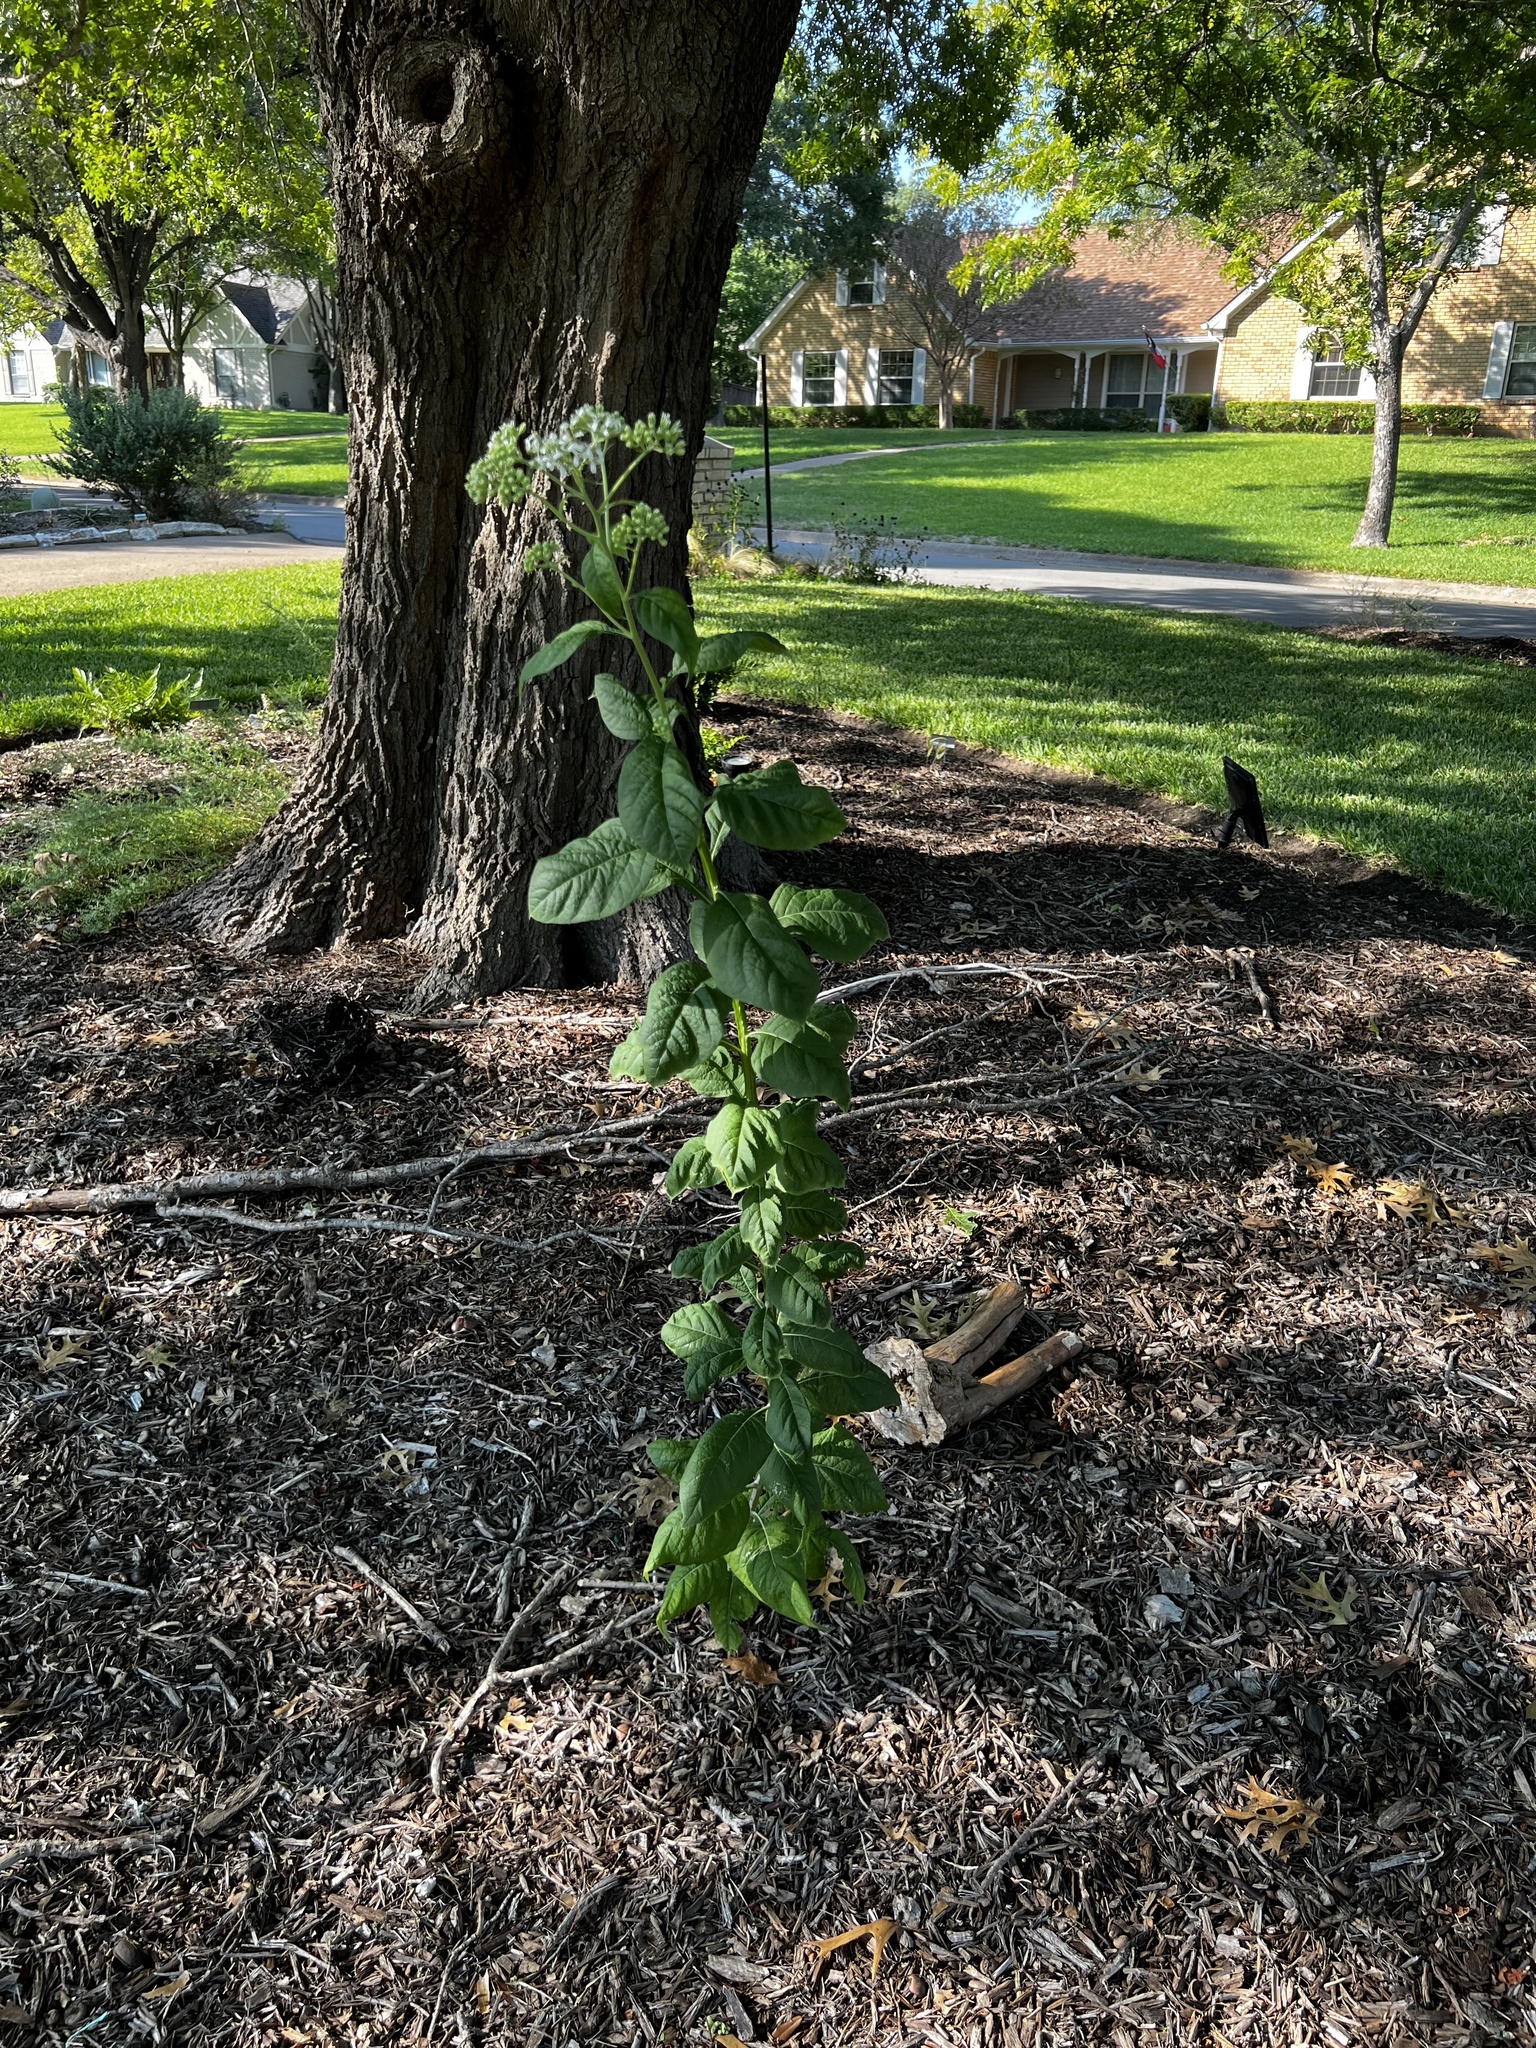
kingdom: Plantae
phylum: Tracheophyta
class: Magnoliopsida
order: Asterales
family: Asteraceae
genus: Verbesina
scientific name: Verbesina virginica
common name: Frostweed
